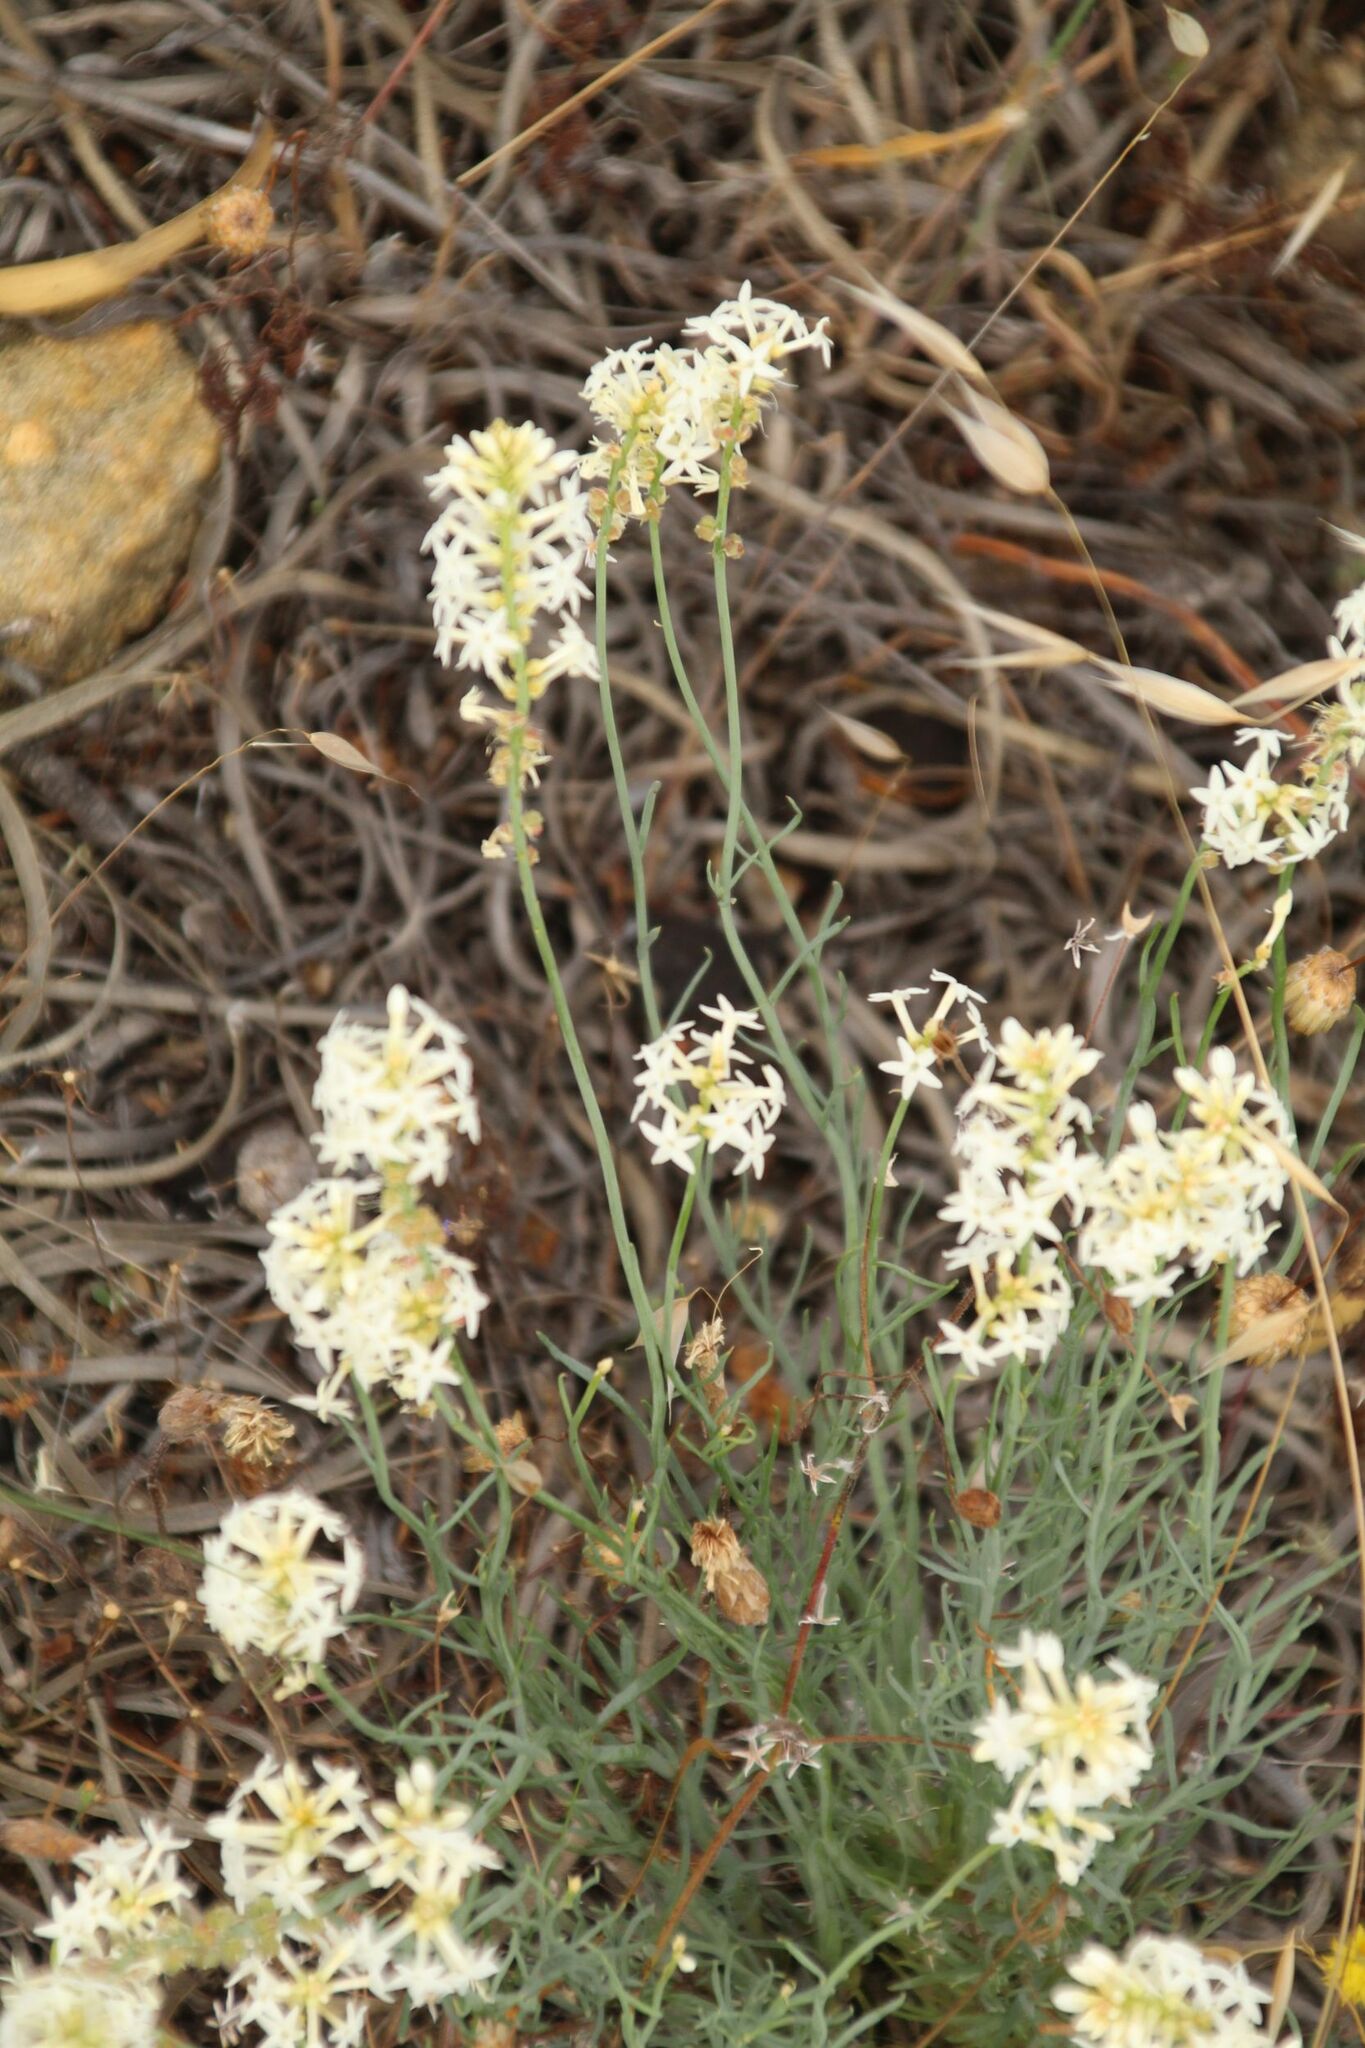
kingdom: Plantae
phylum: Tracheophyta
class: Magnoliopsida
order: Celastrales
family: Celastraceae
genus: Stackhousia
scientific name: Stackhousia monogyna
